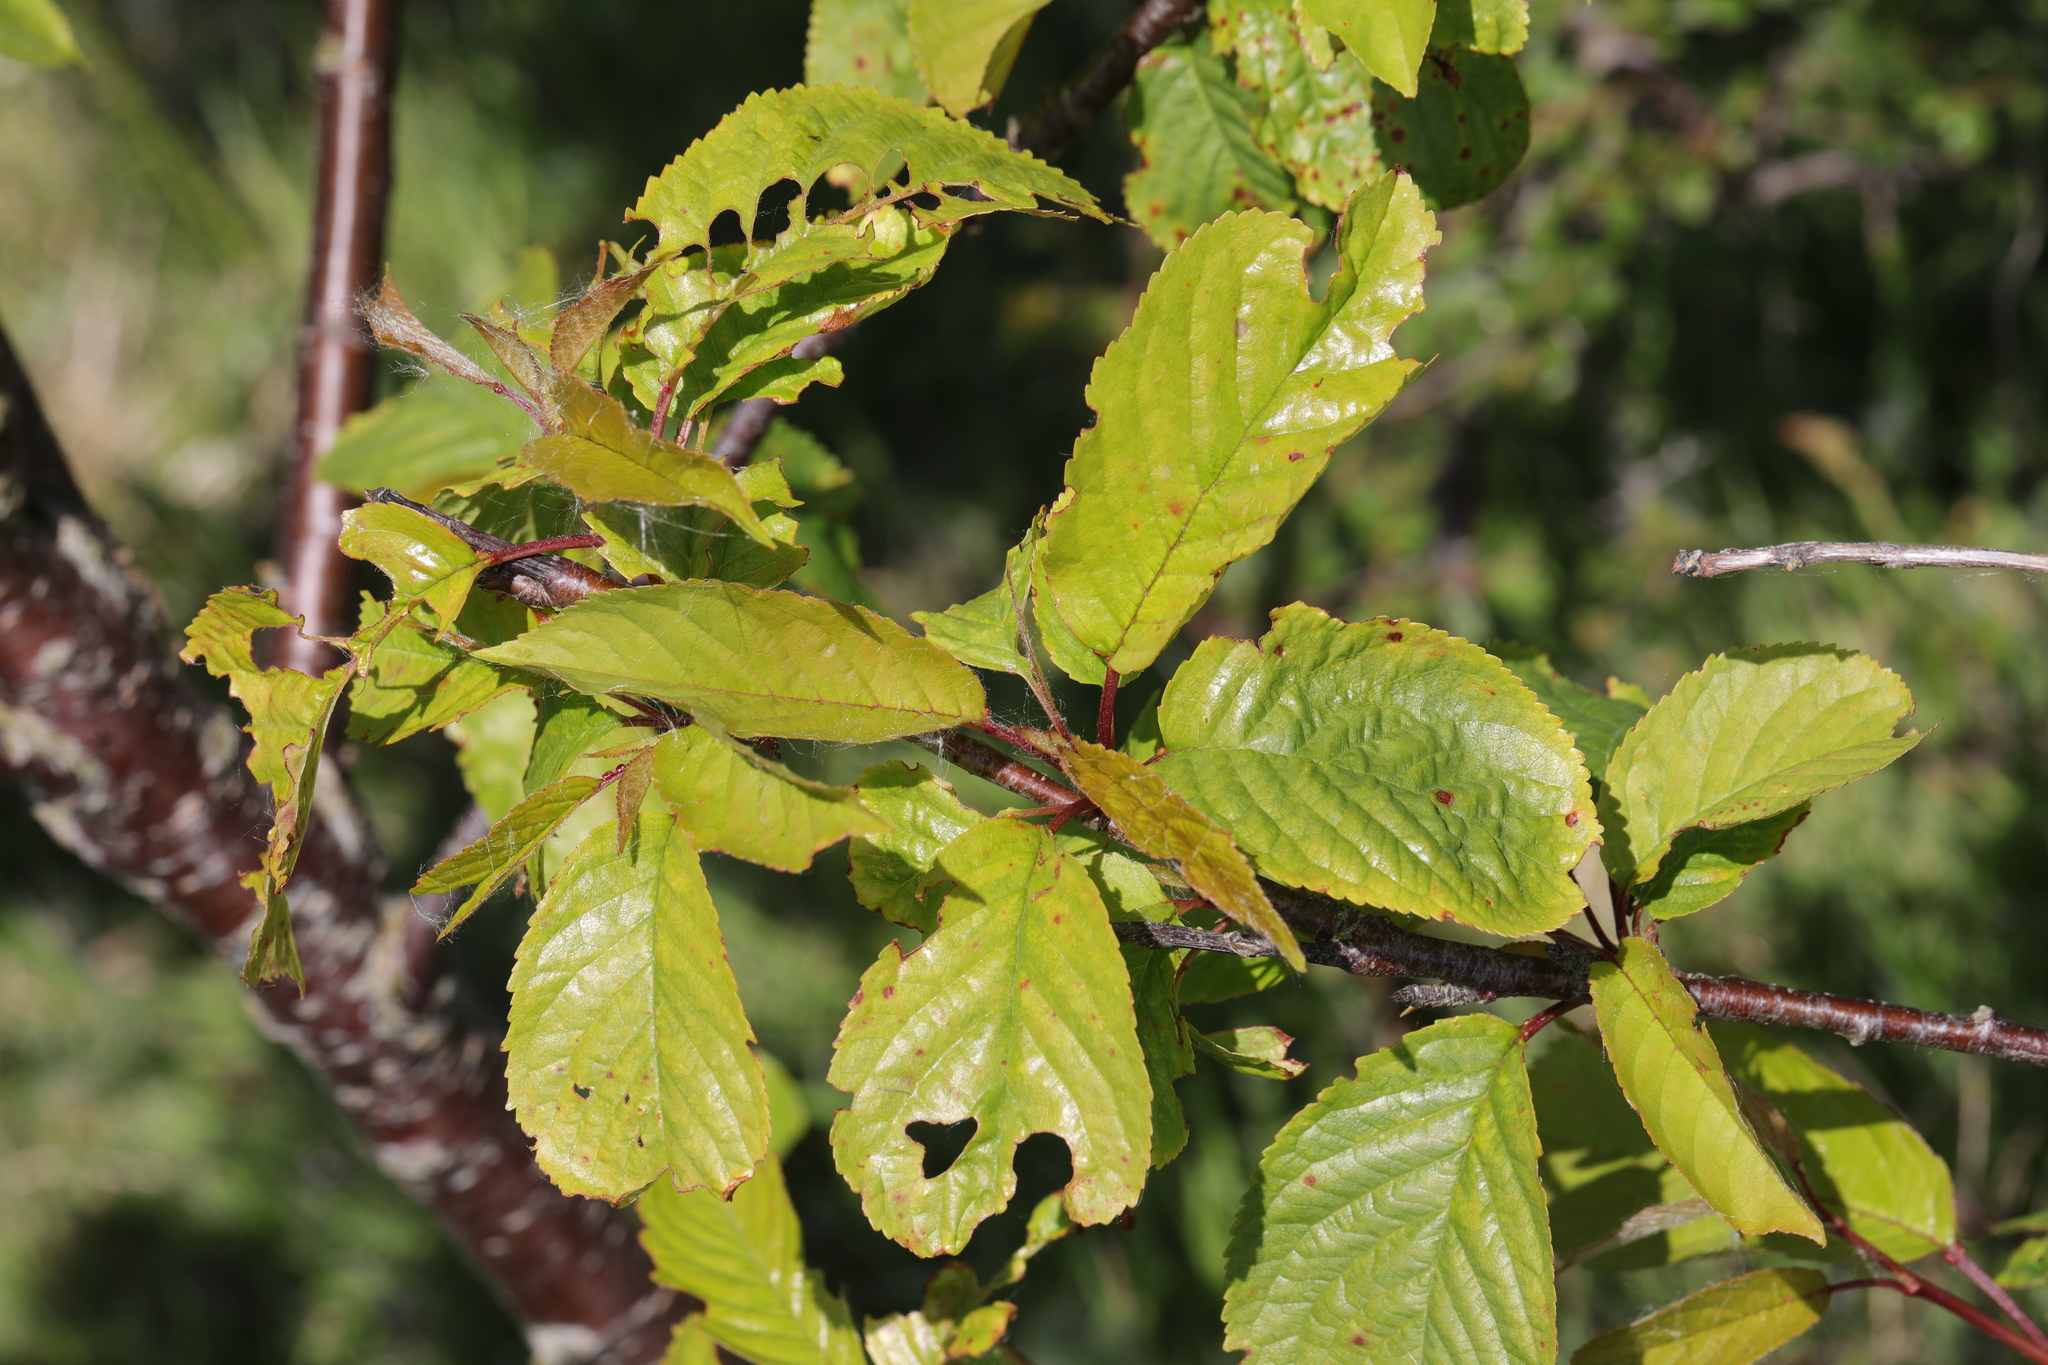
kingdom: Plantae
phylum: Tracheophyta
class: Magnoliopsida
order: Rosales
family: Rosaceae
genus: Prunus
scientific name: Prunus avium
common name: Sweet cherry
